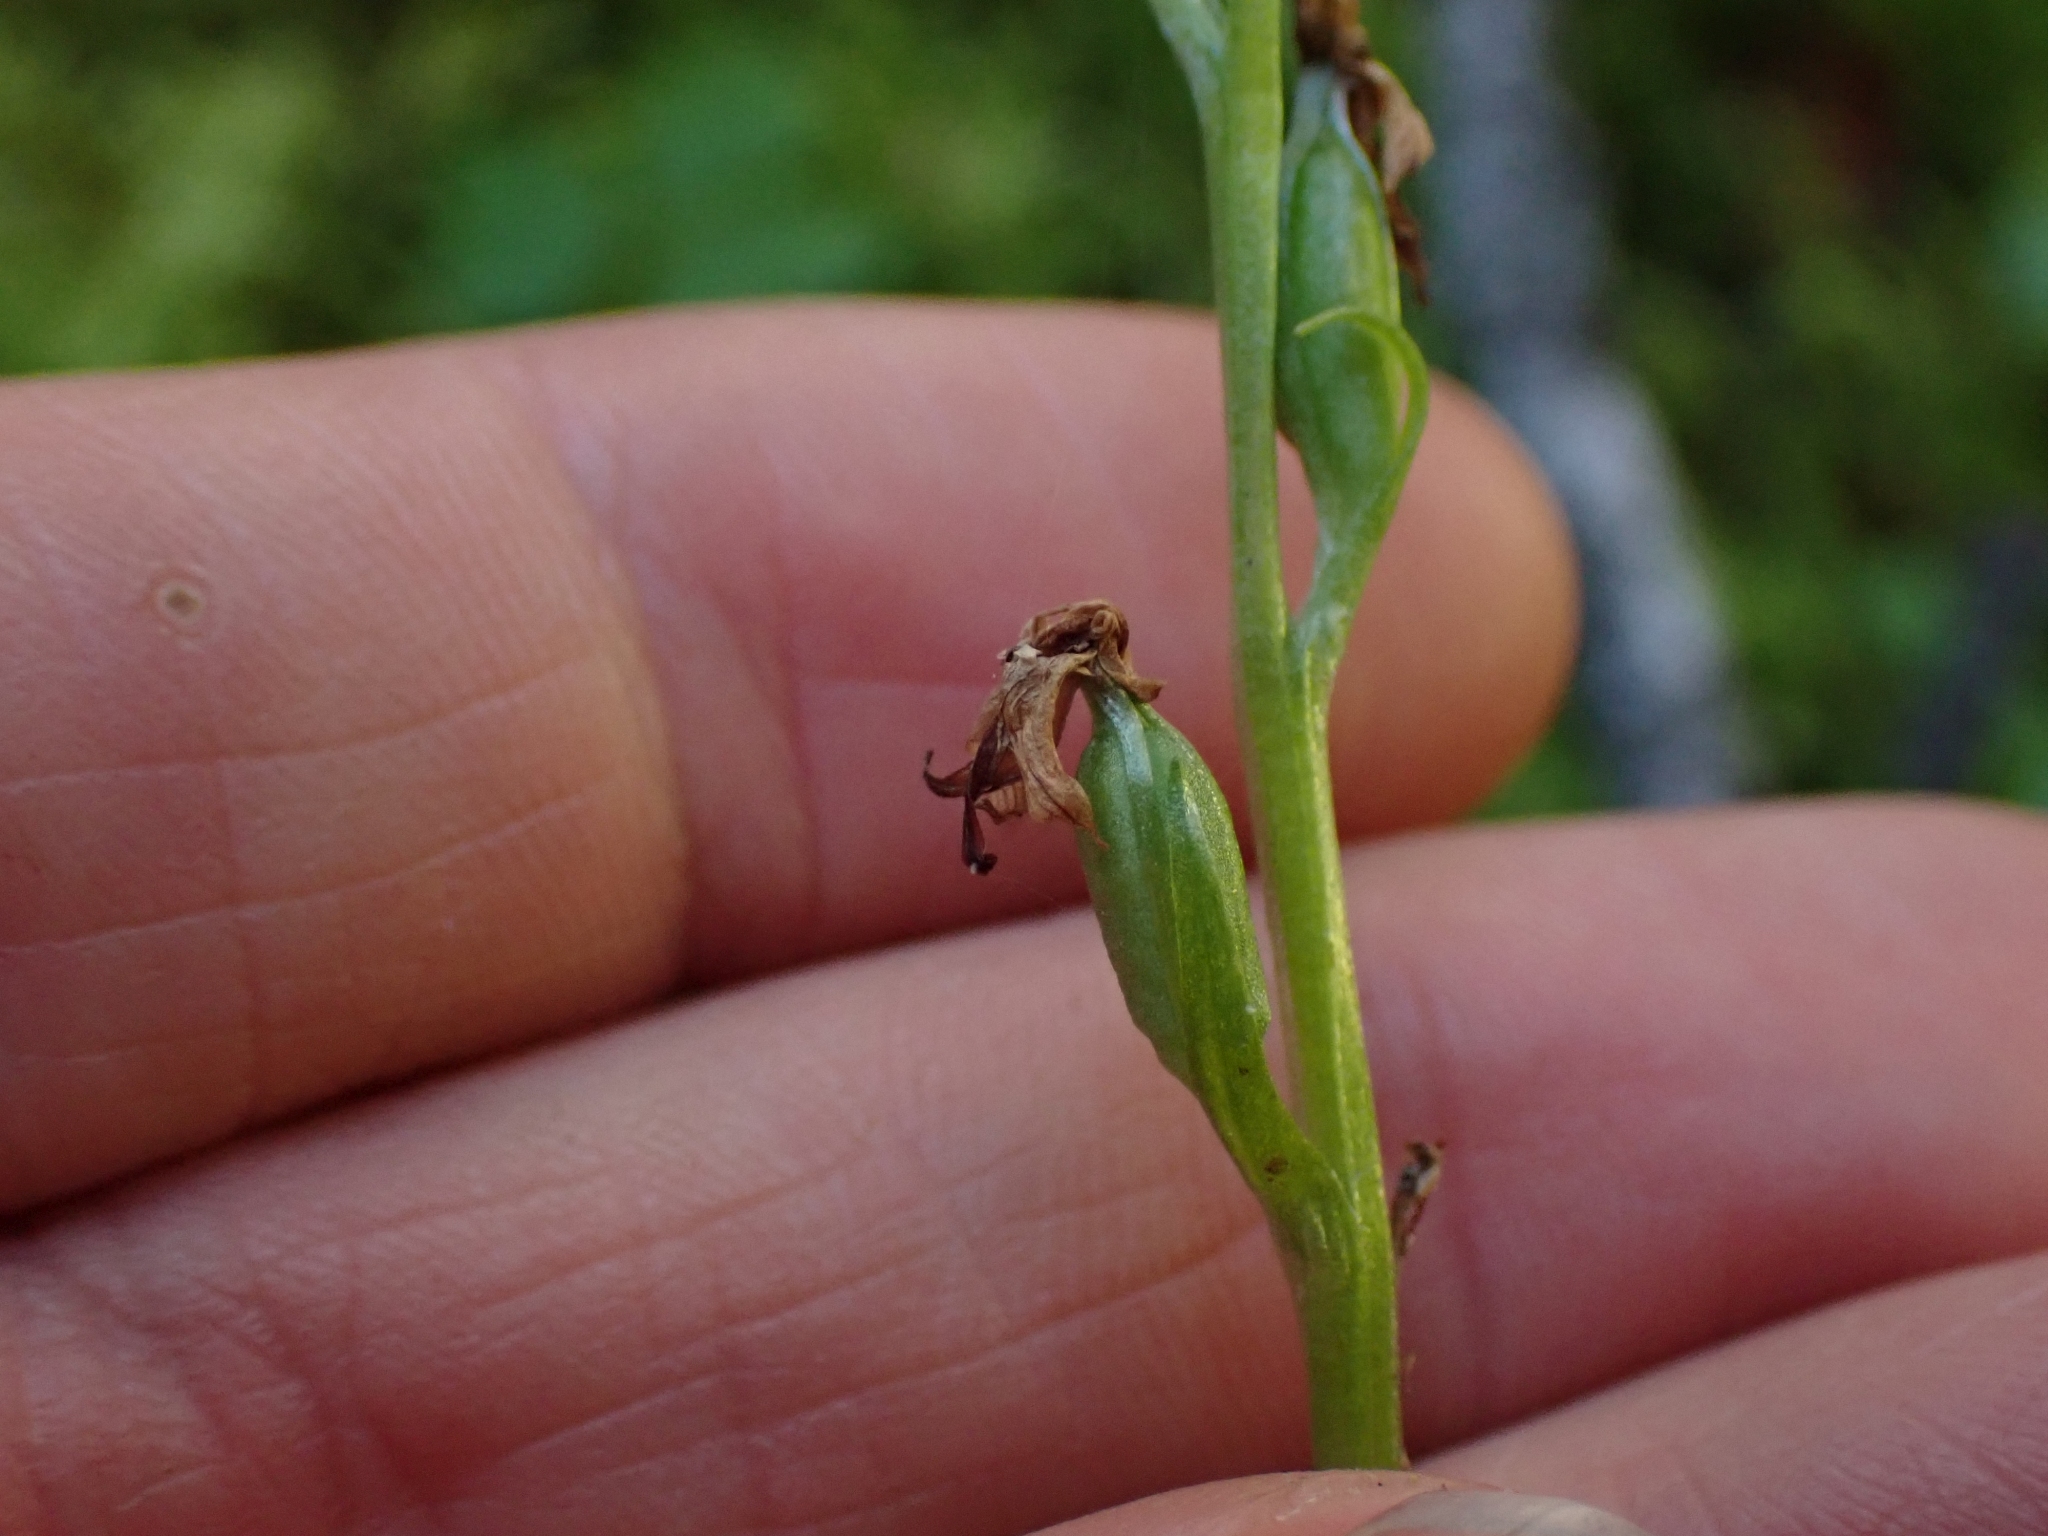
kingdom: Plantae
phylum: Tracheophyta
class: Liliopsida
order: Asparagales
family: Orchidaceae
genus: Platanthera
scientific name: Platanthera obtusata
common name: Blunt bog orchid
